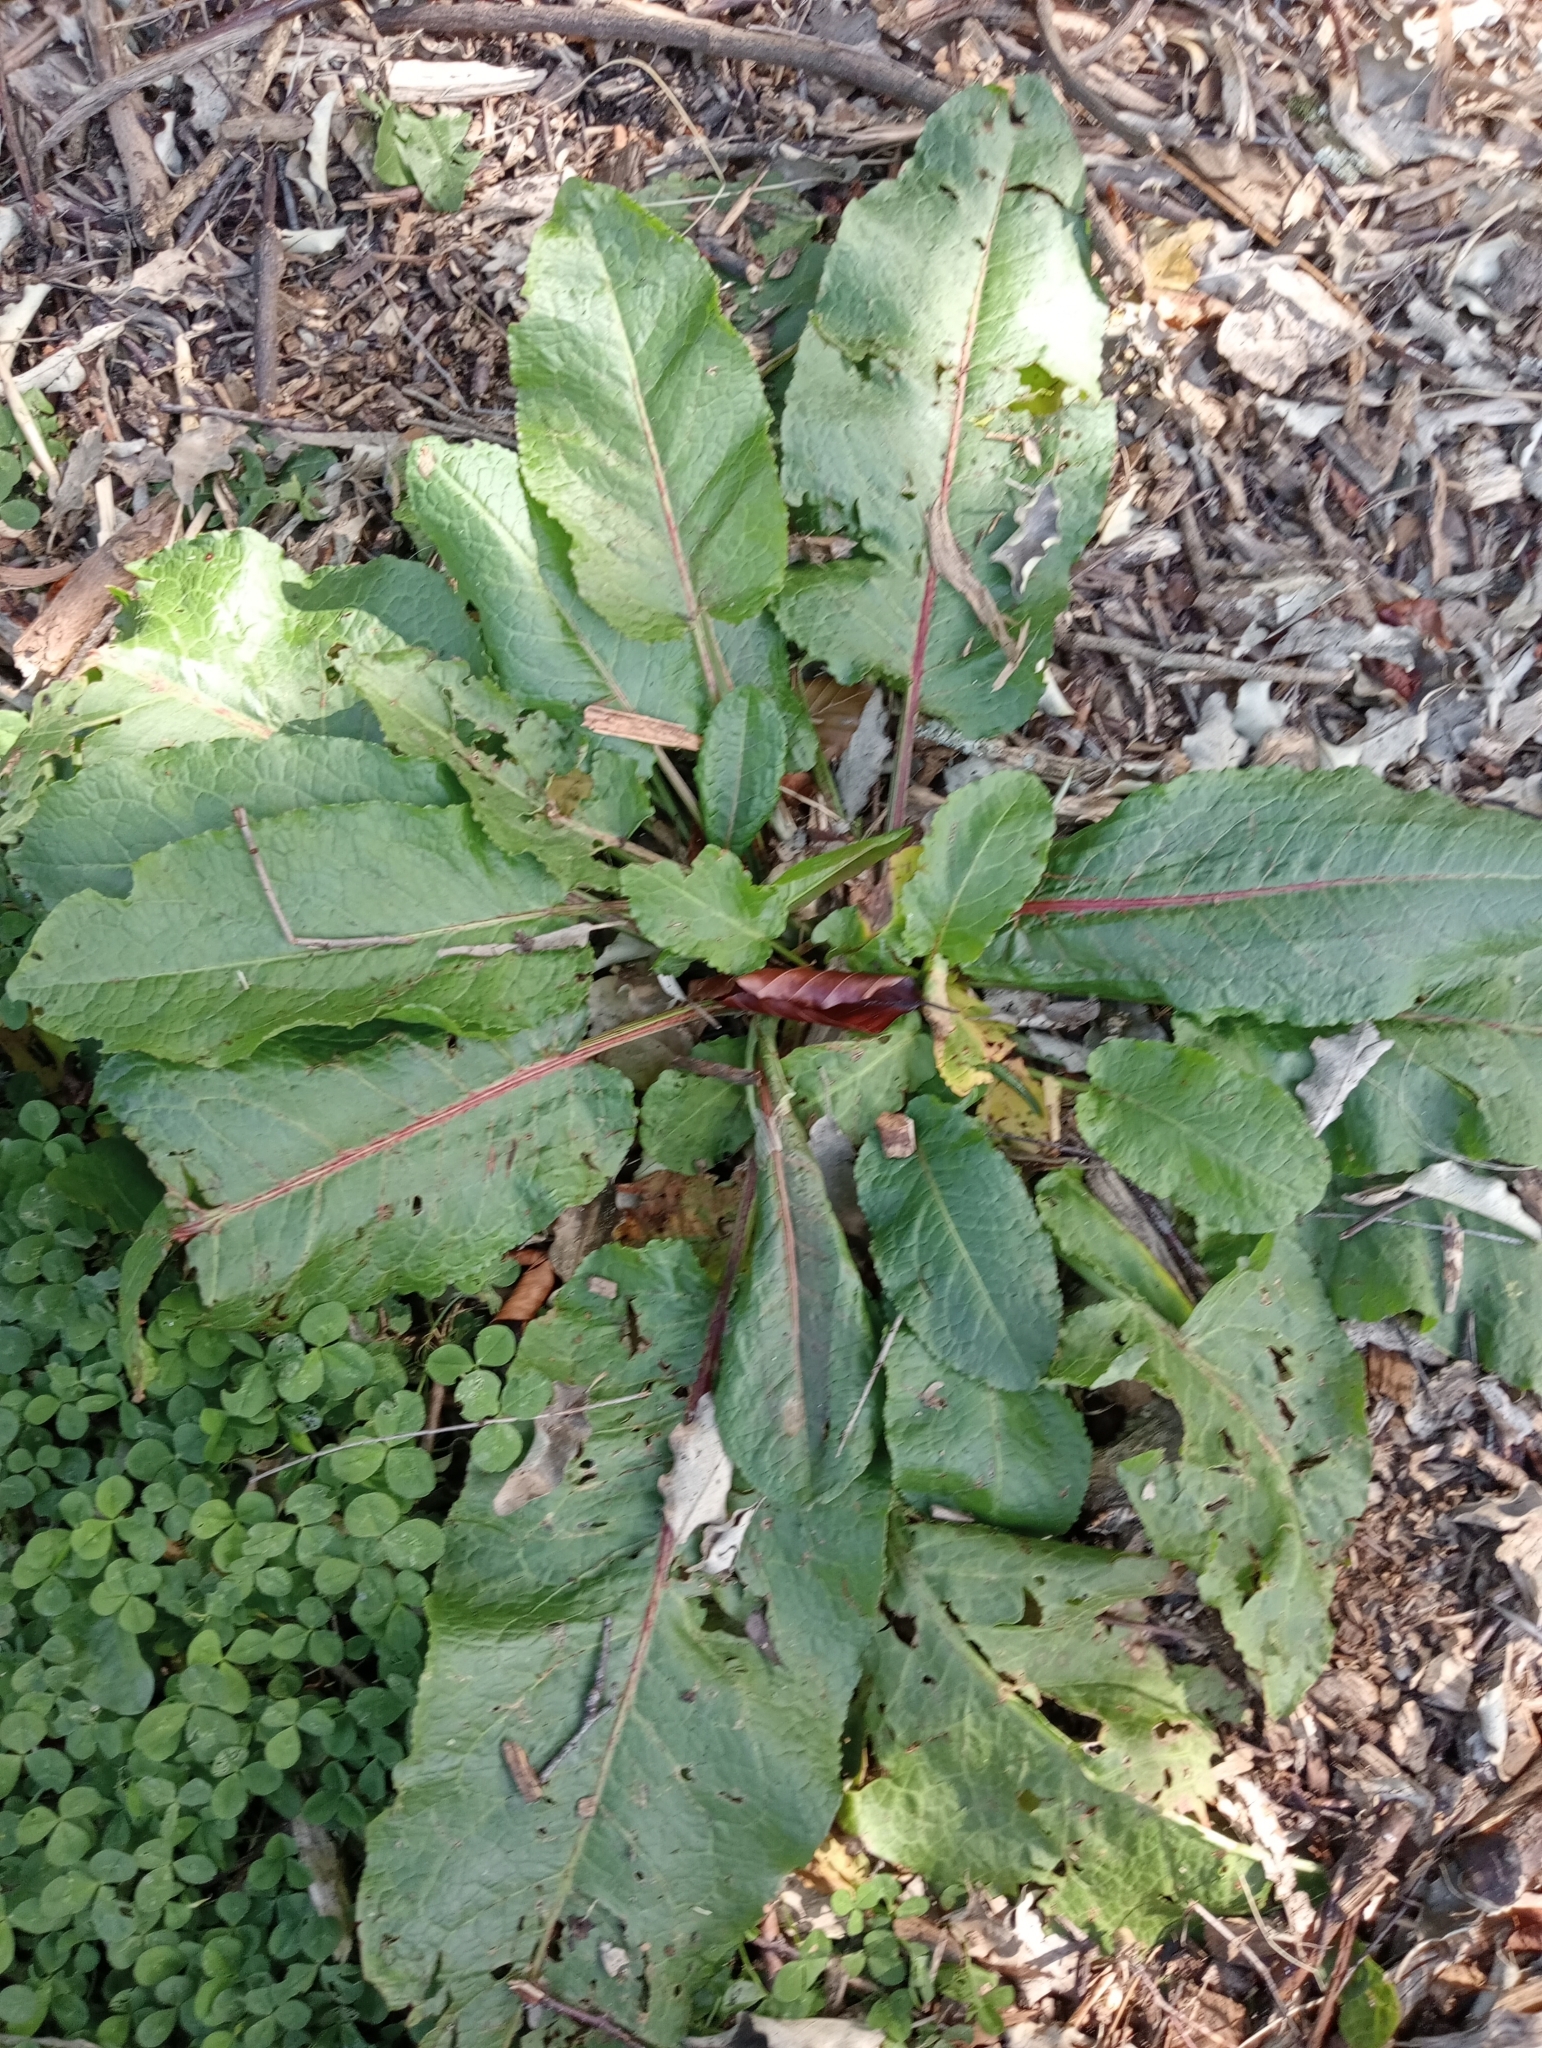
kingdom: Plantae
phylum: Tracheophyta
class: Magnoliopsida
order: Caryophyllales
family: Polygonaceae
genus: Rumex
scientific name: Rumex obtusifolius
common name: Bitter dock
